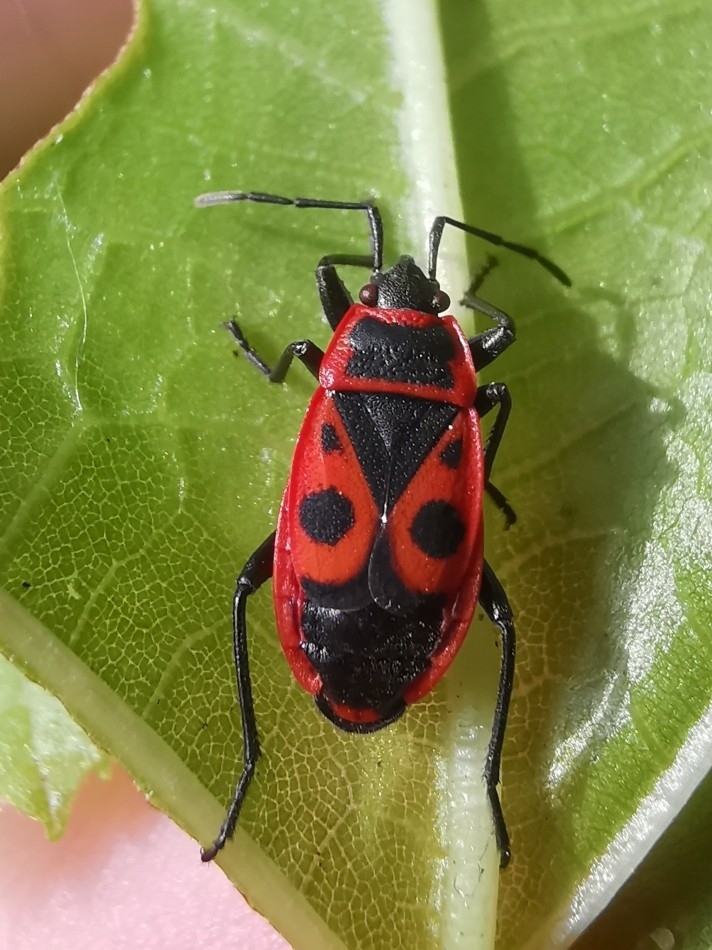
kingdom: Animalia
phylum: Arthropoda
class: Insecta
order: Hemiptera
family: Pyrrhocoridae
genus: Pyrrhocoris
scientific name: Pyrrhocoris apterus
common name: Firebug
